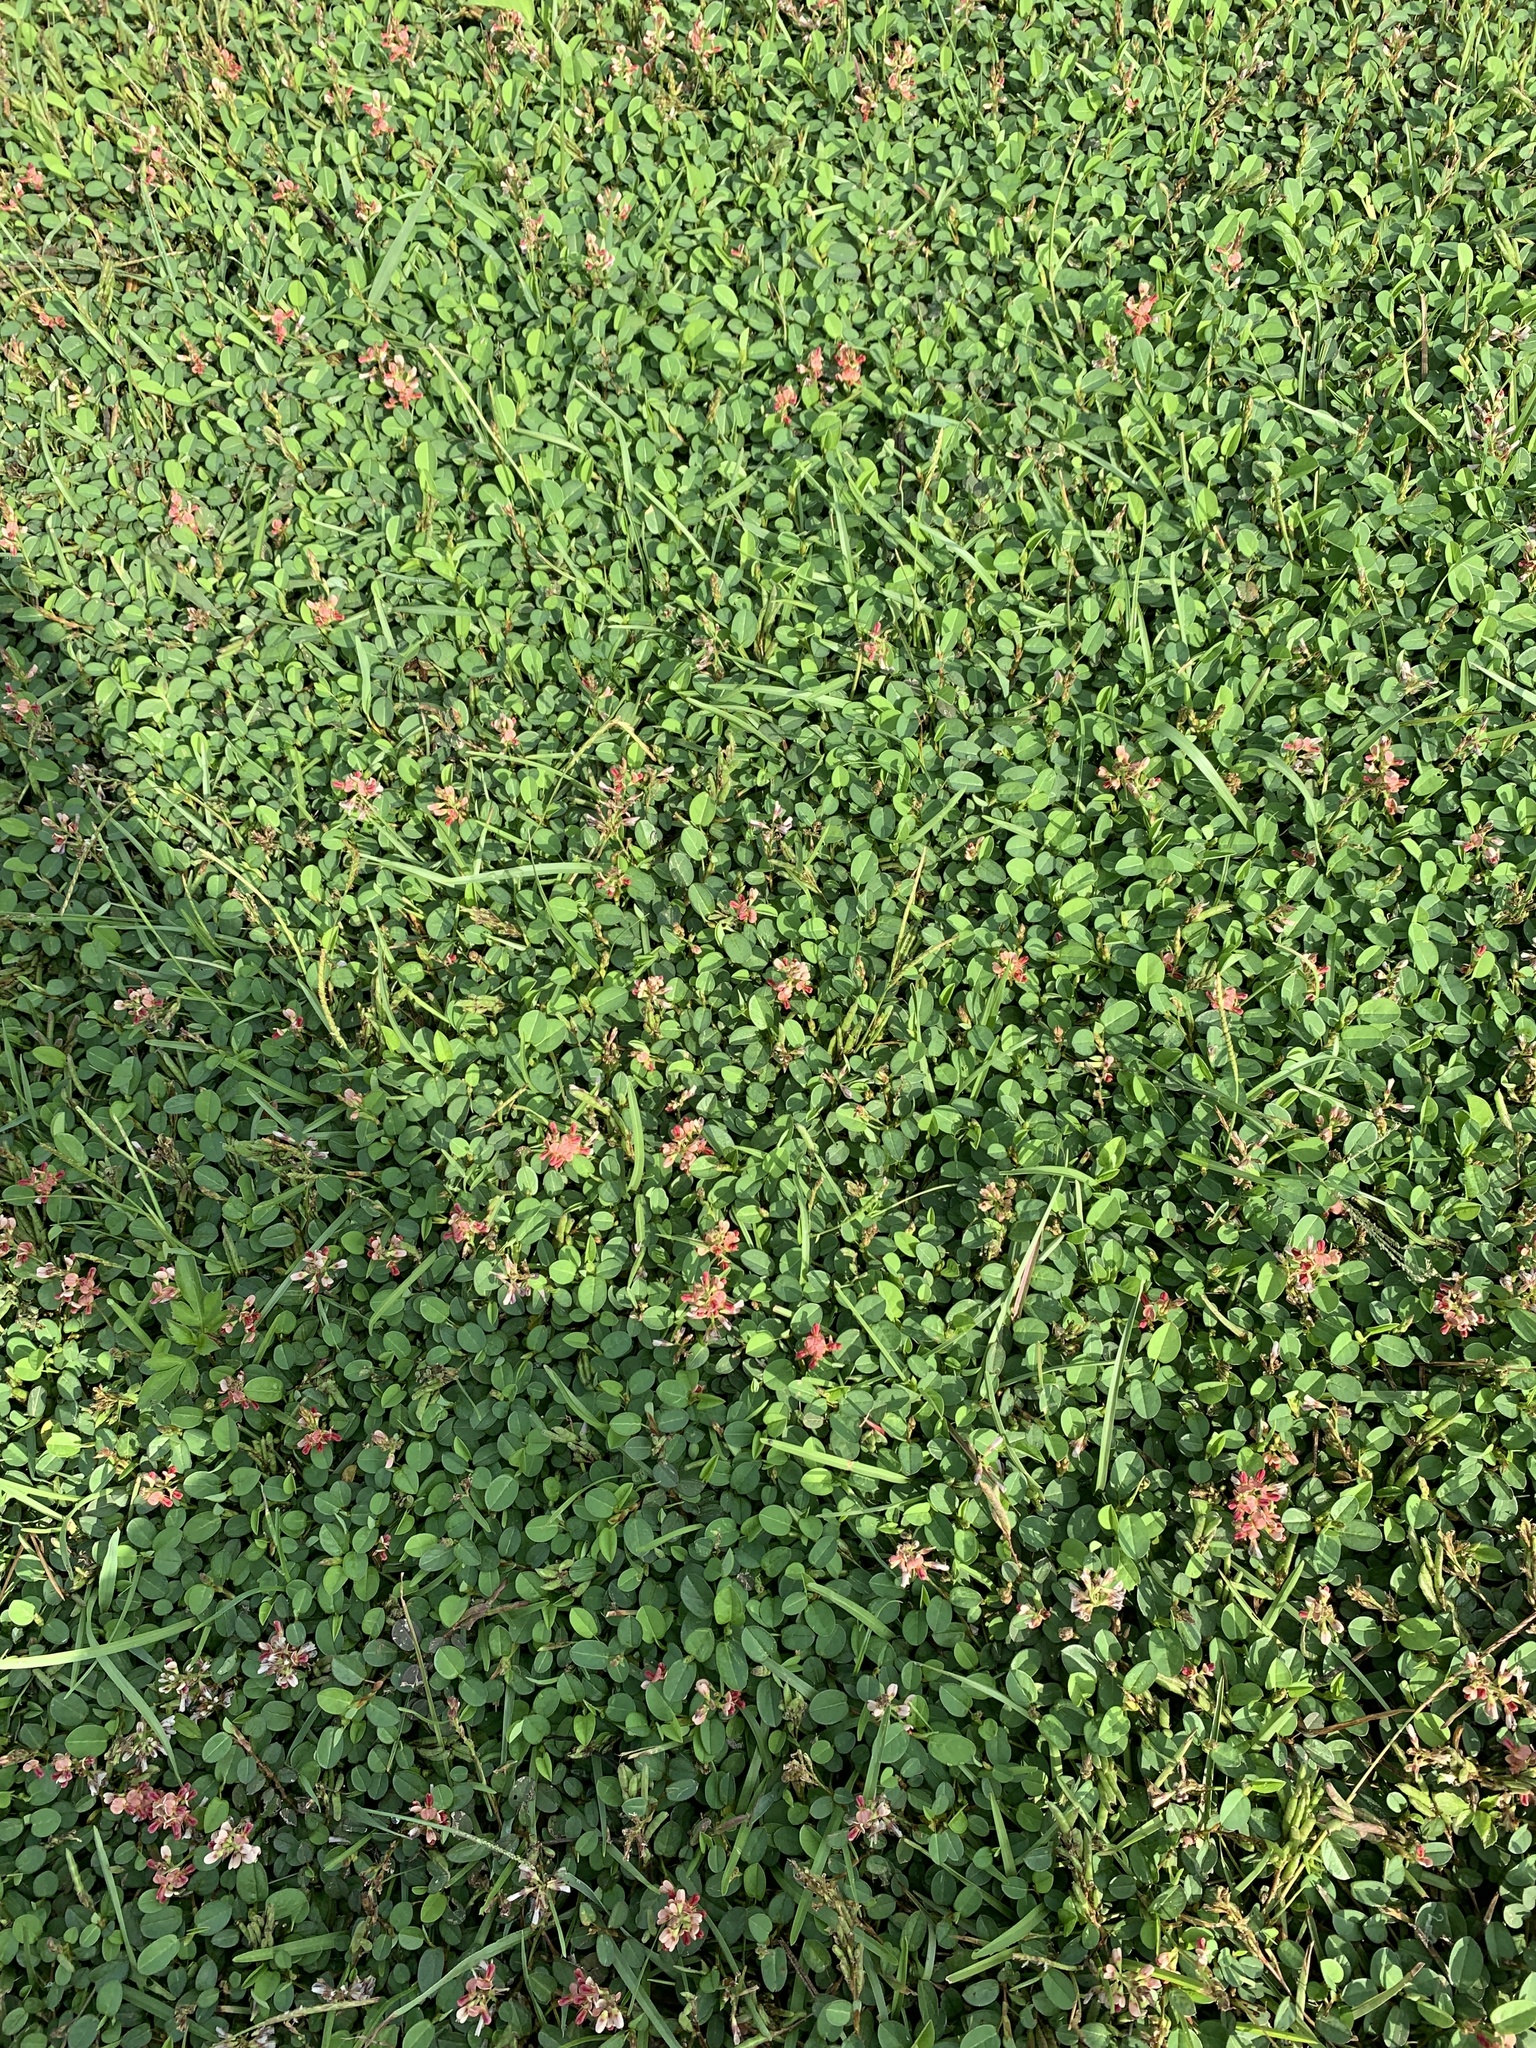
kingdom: Plantae
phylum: Tracheophyta
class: Magnoliopsida
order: Fabales
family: Fabaceae
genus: Alysicarpus
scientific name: Alysicarpus vaginalis
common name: White moneywort
